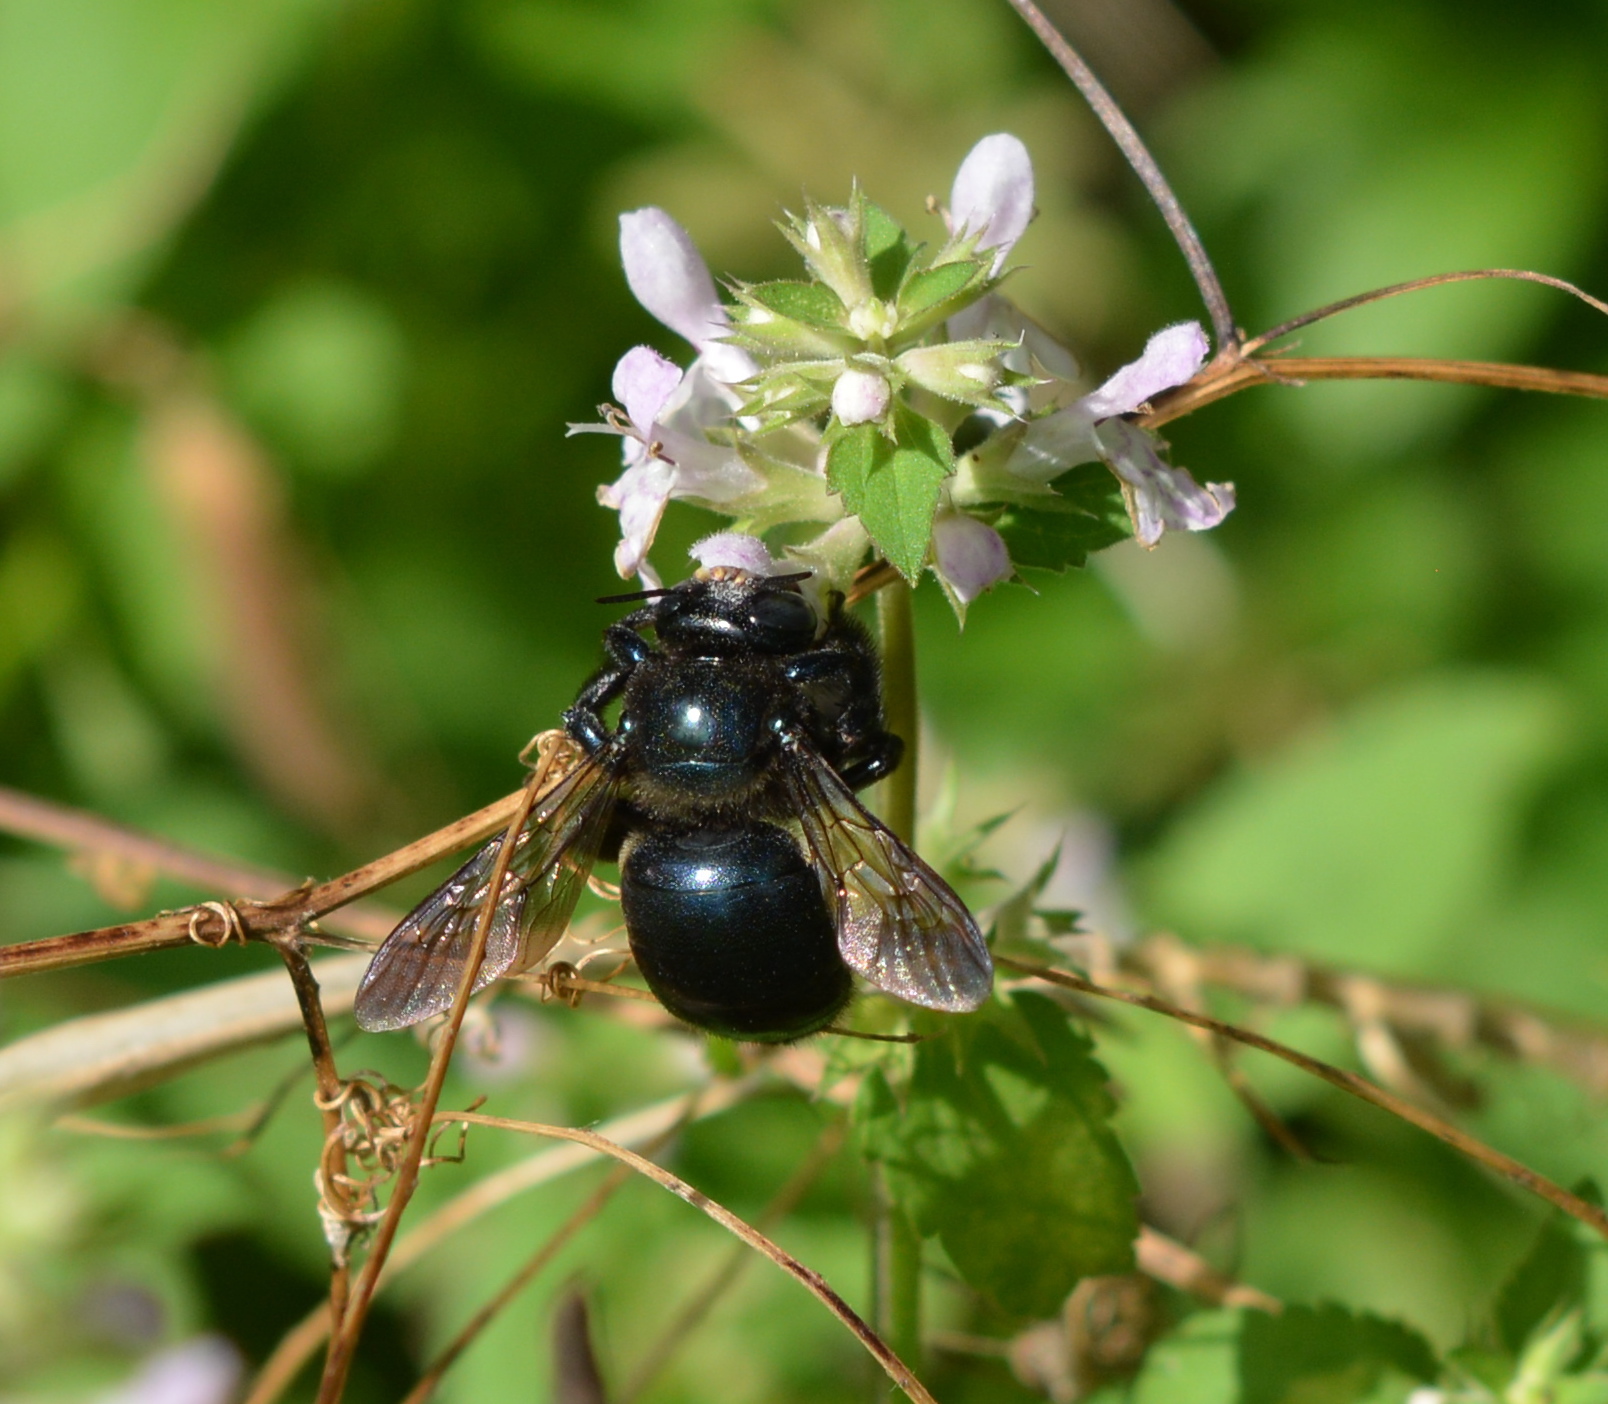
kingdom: Animalia
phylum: Arthropoda
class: Insecta
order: Hymenoptera
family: Apidae
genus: Xylocopa
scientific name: Xylocopa micans
